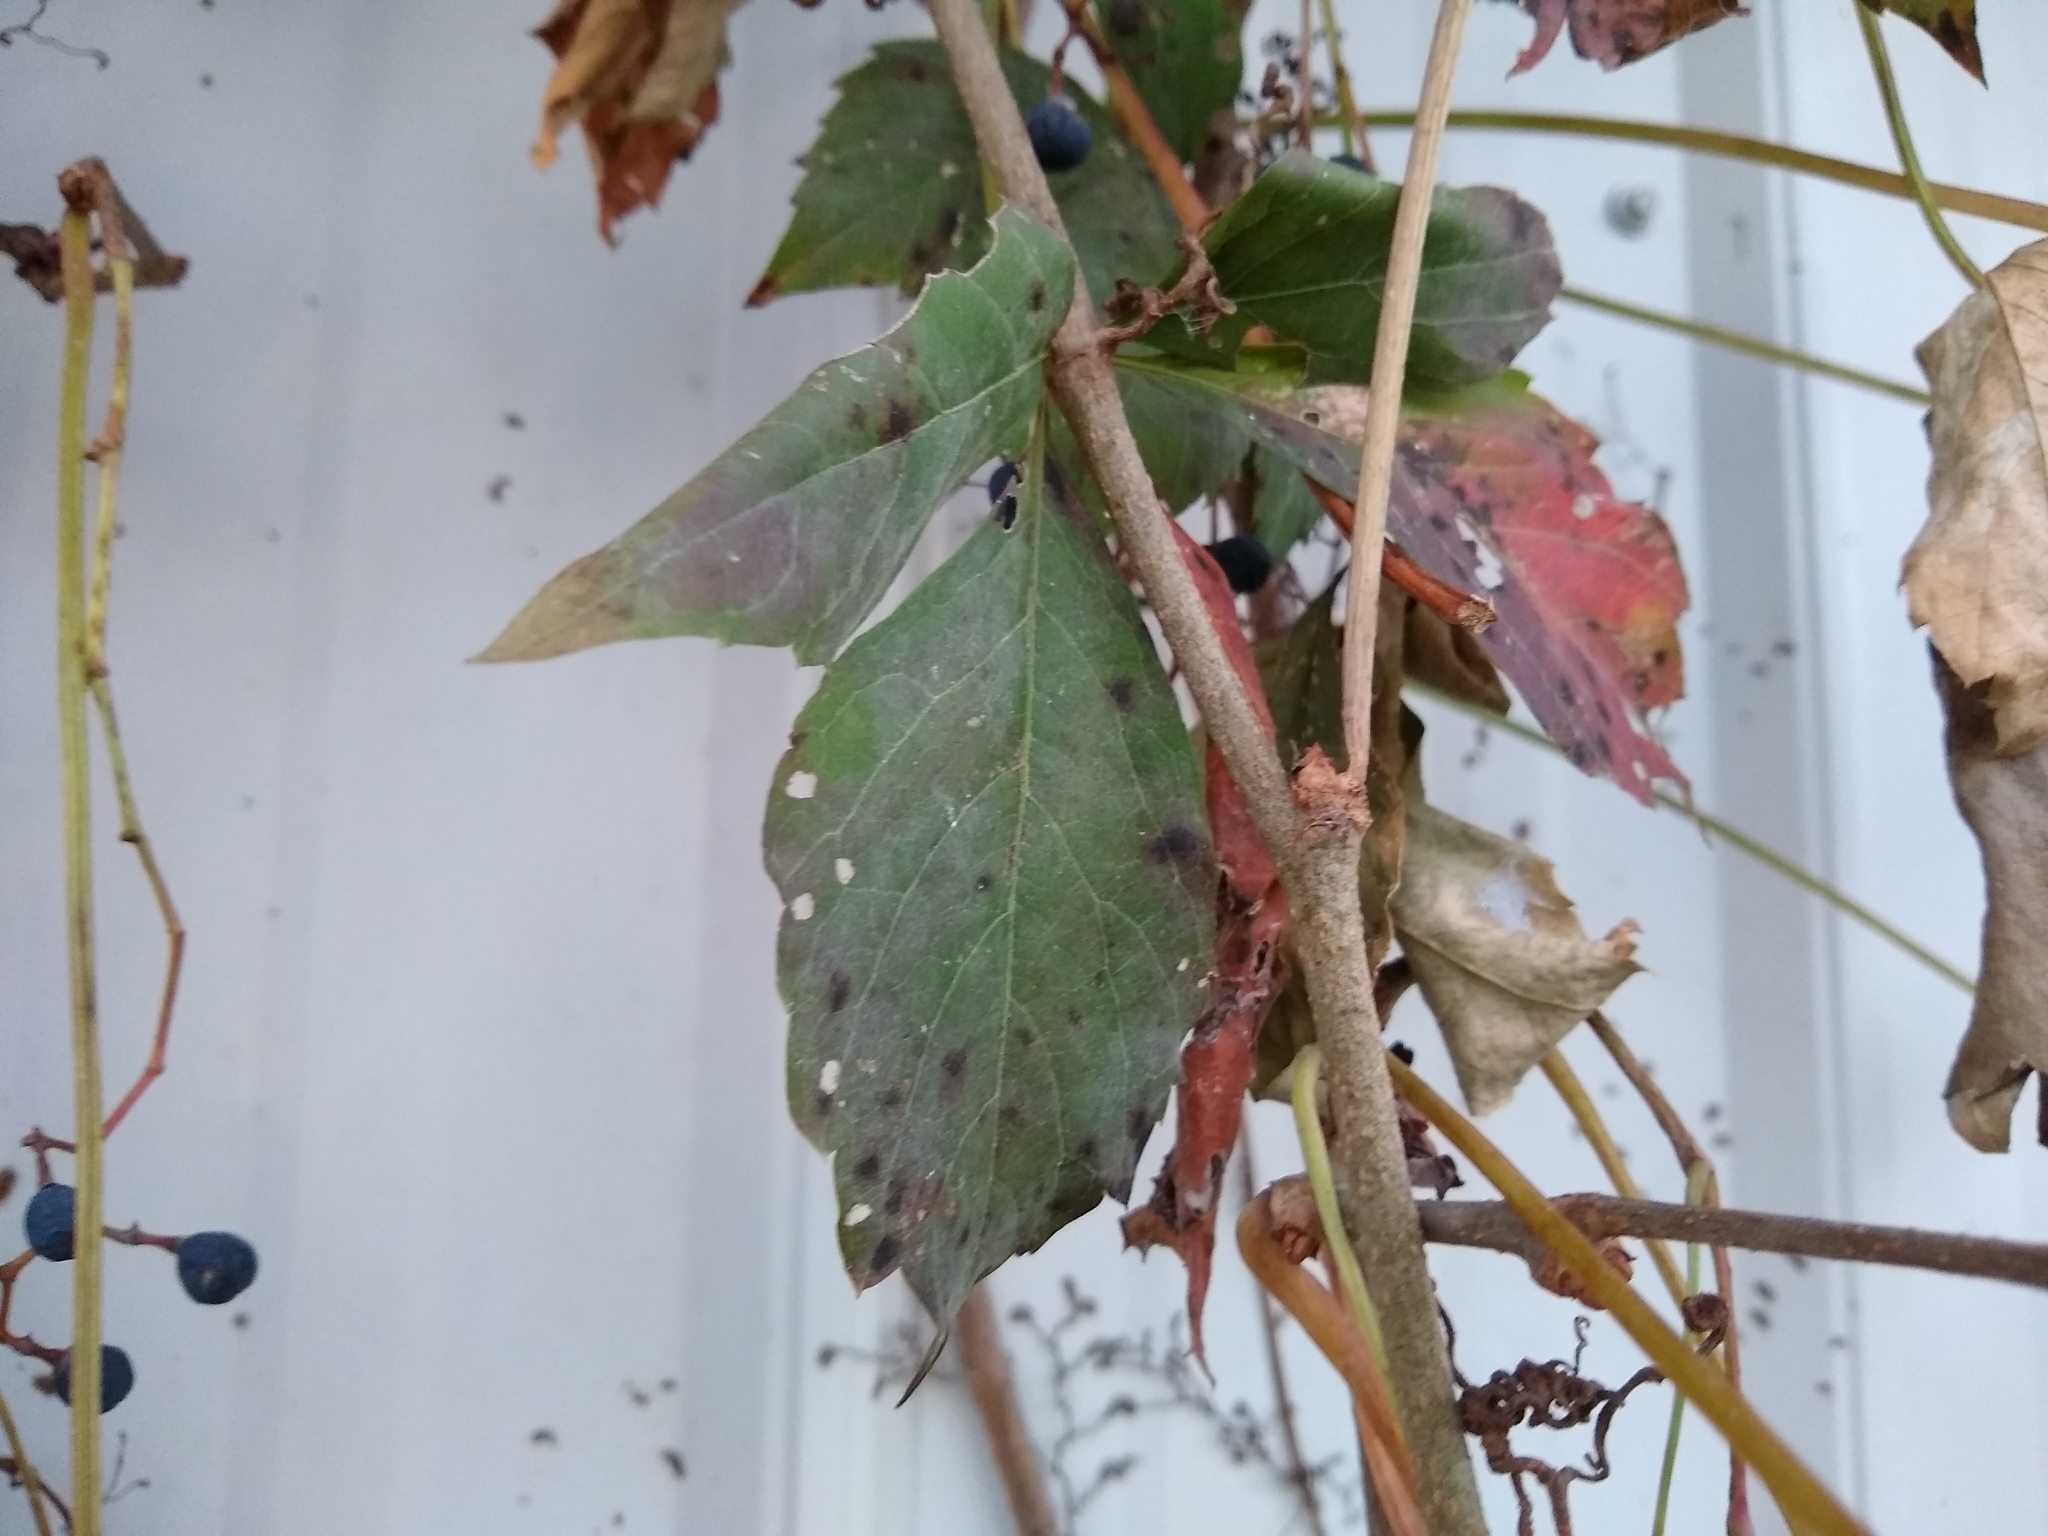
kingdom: Plantae
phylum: Tracheophyta
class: Magnoliopsida
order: Vitales
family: Vitaceae
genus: Parthenocissus
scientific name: Parthenocissus quinquefolia
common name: Virginia-creeper
